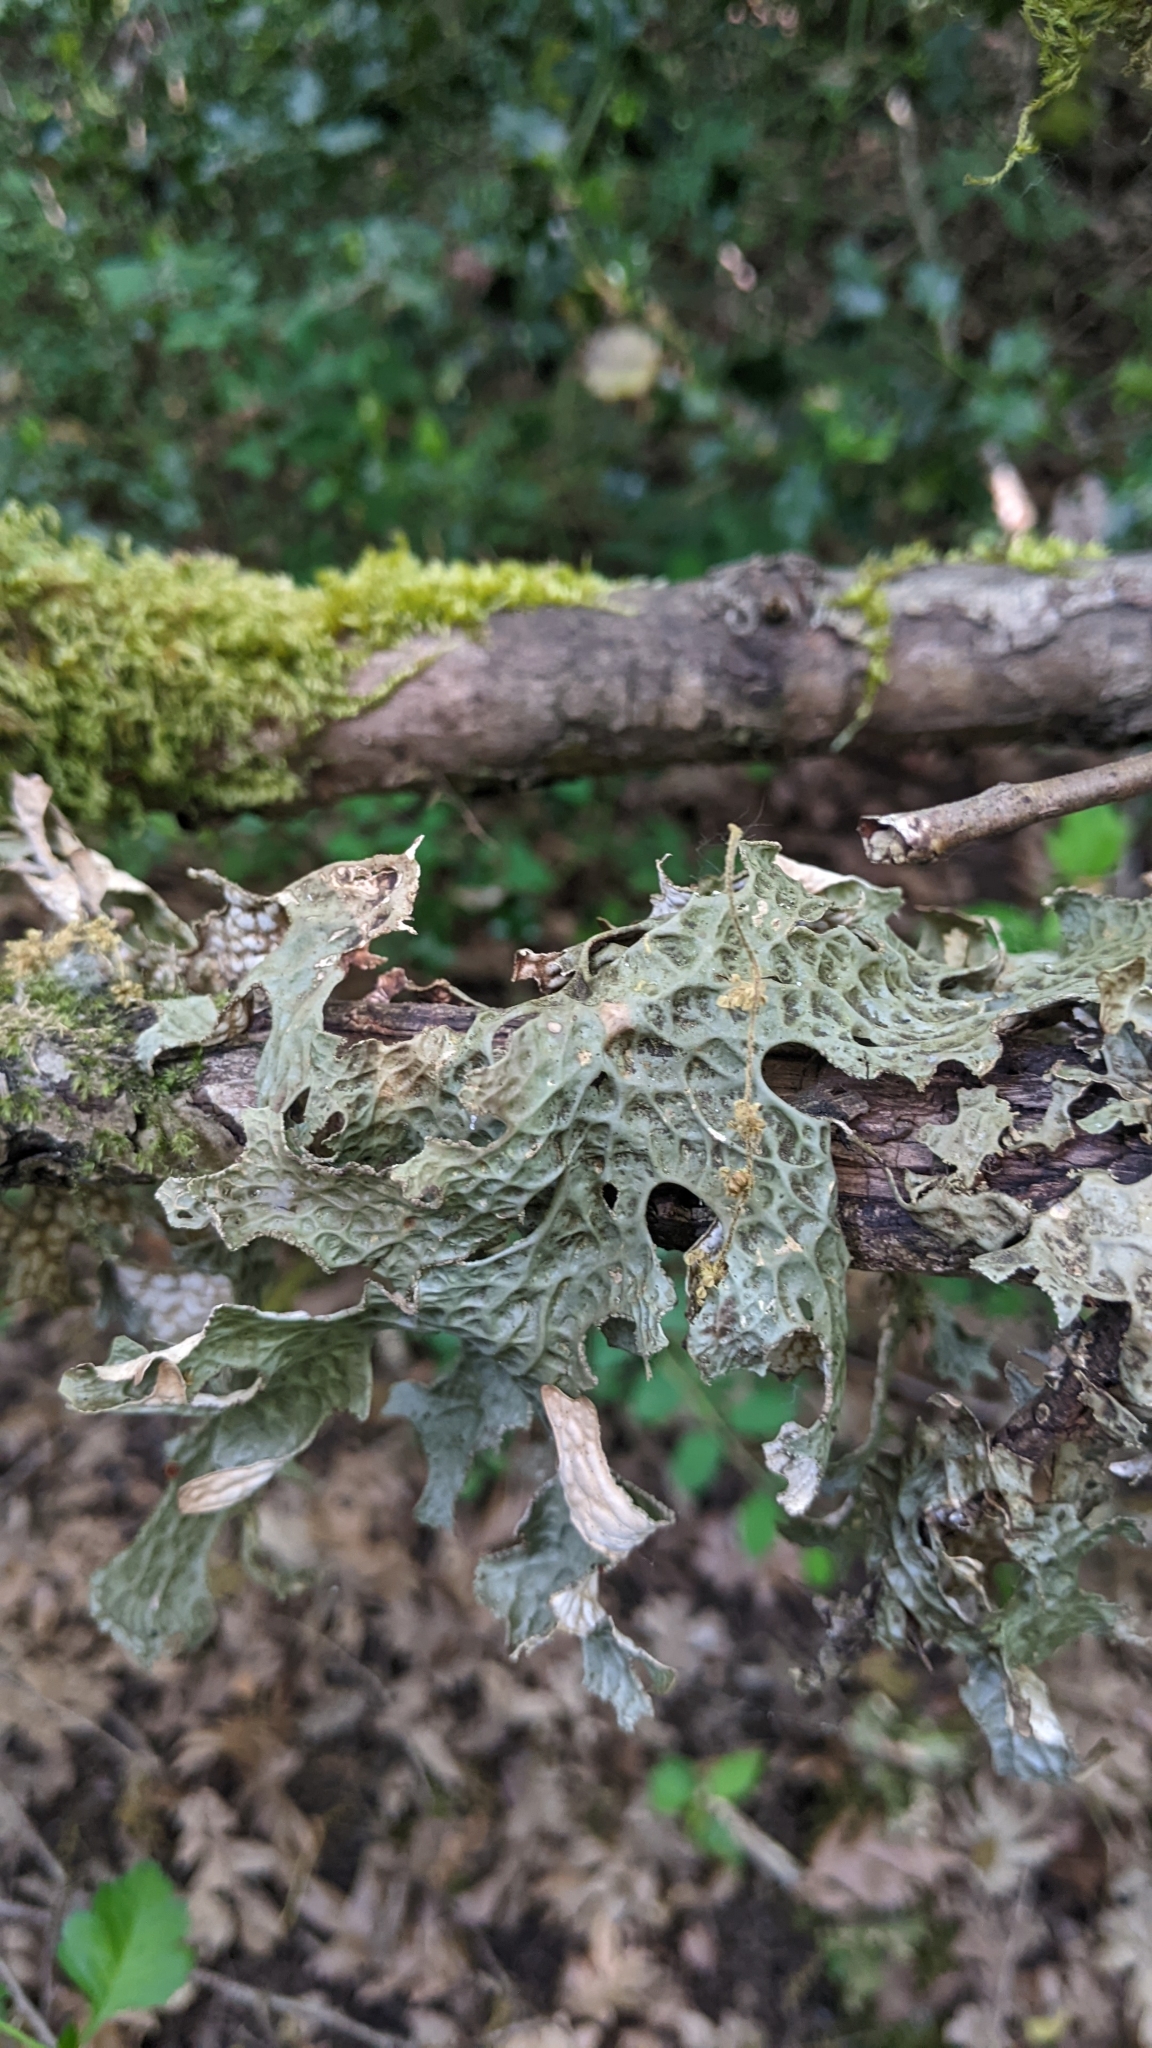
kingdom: Fungi
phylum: Ascomycota
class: Lecanoromycetes
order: Peltigerales
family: Lobariaceae
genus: Lobaria
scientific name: Lobaria pulmonaria
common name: Lungwort
